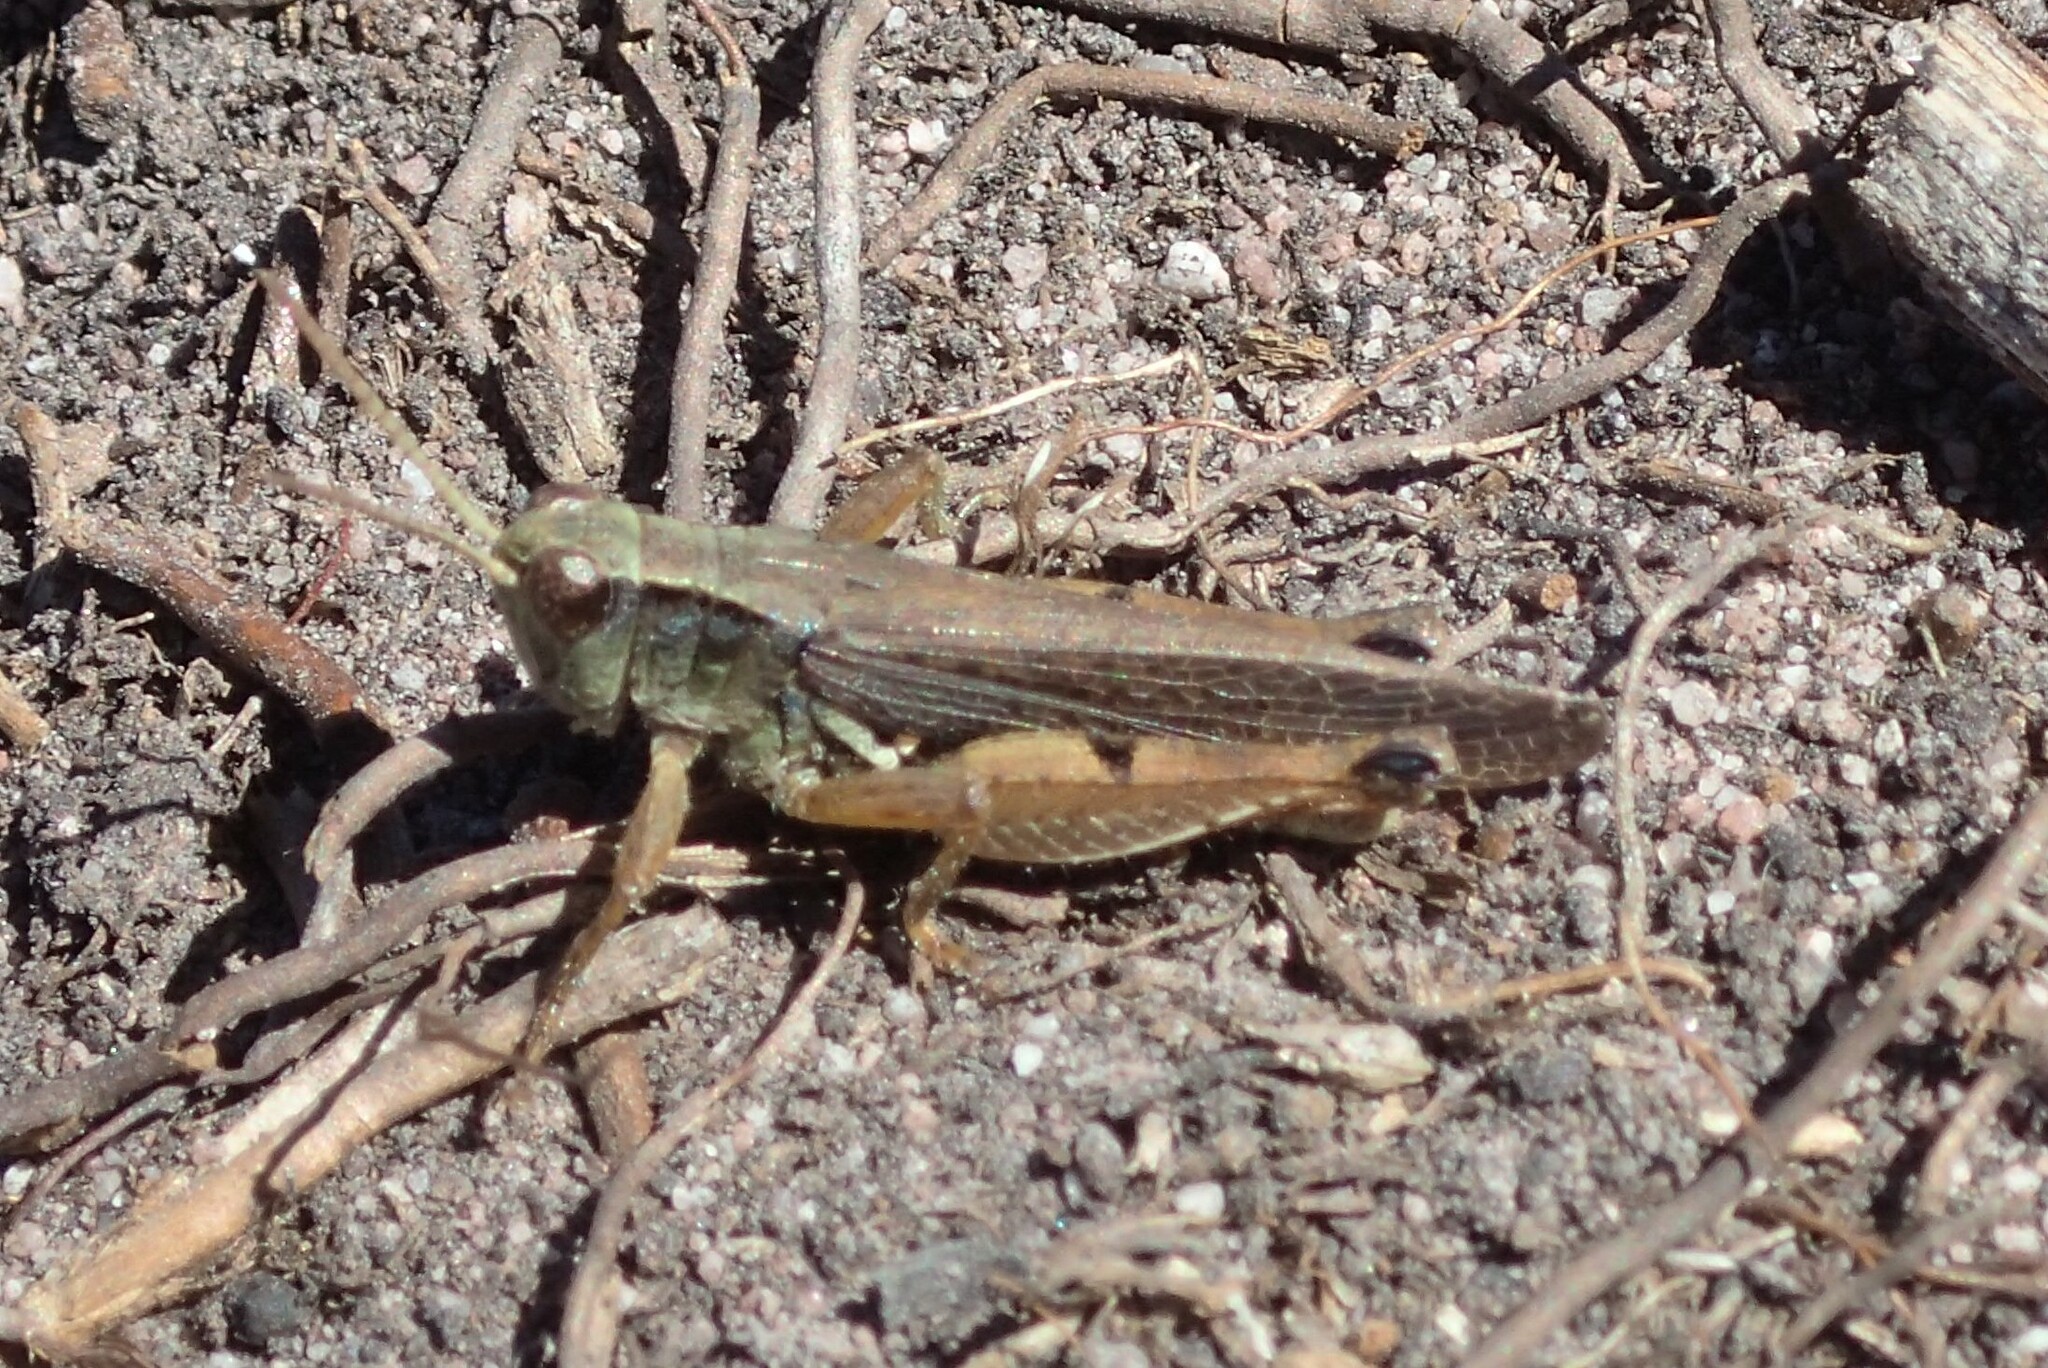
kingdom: Animalia
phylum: Arthropoda
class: Insecta
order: Orthoptera
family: Acrididae
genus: Phaulacridium
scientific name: Phaulacridium vittatum
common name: Wingless grasshopper
